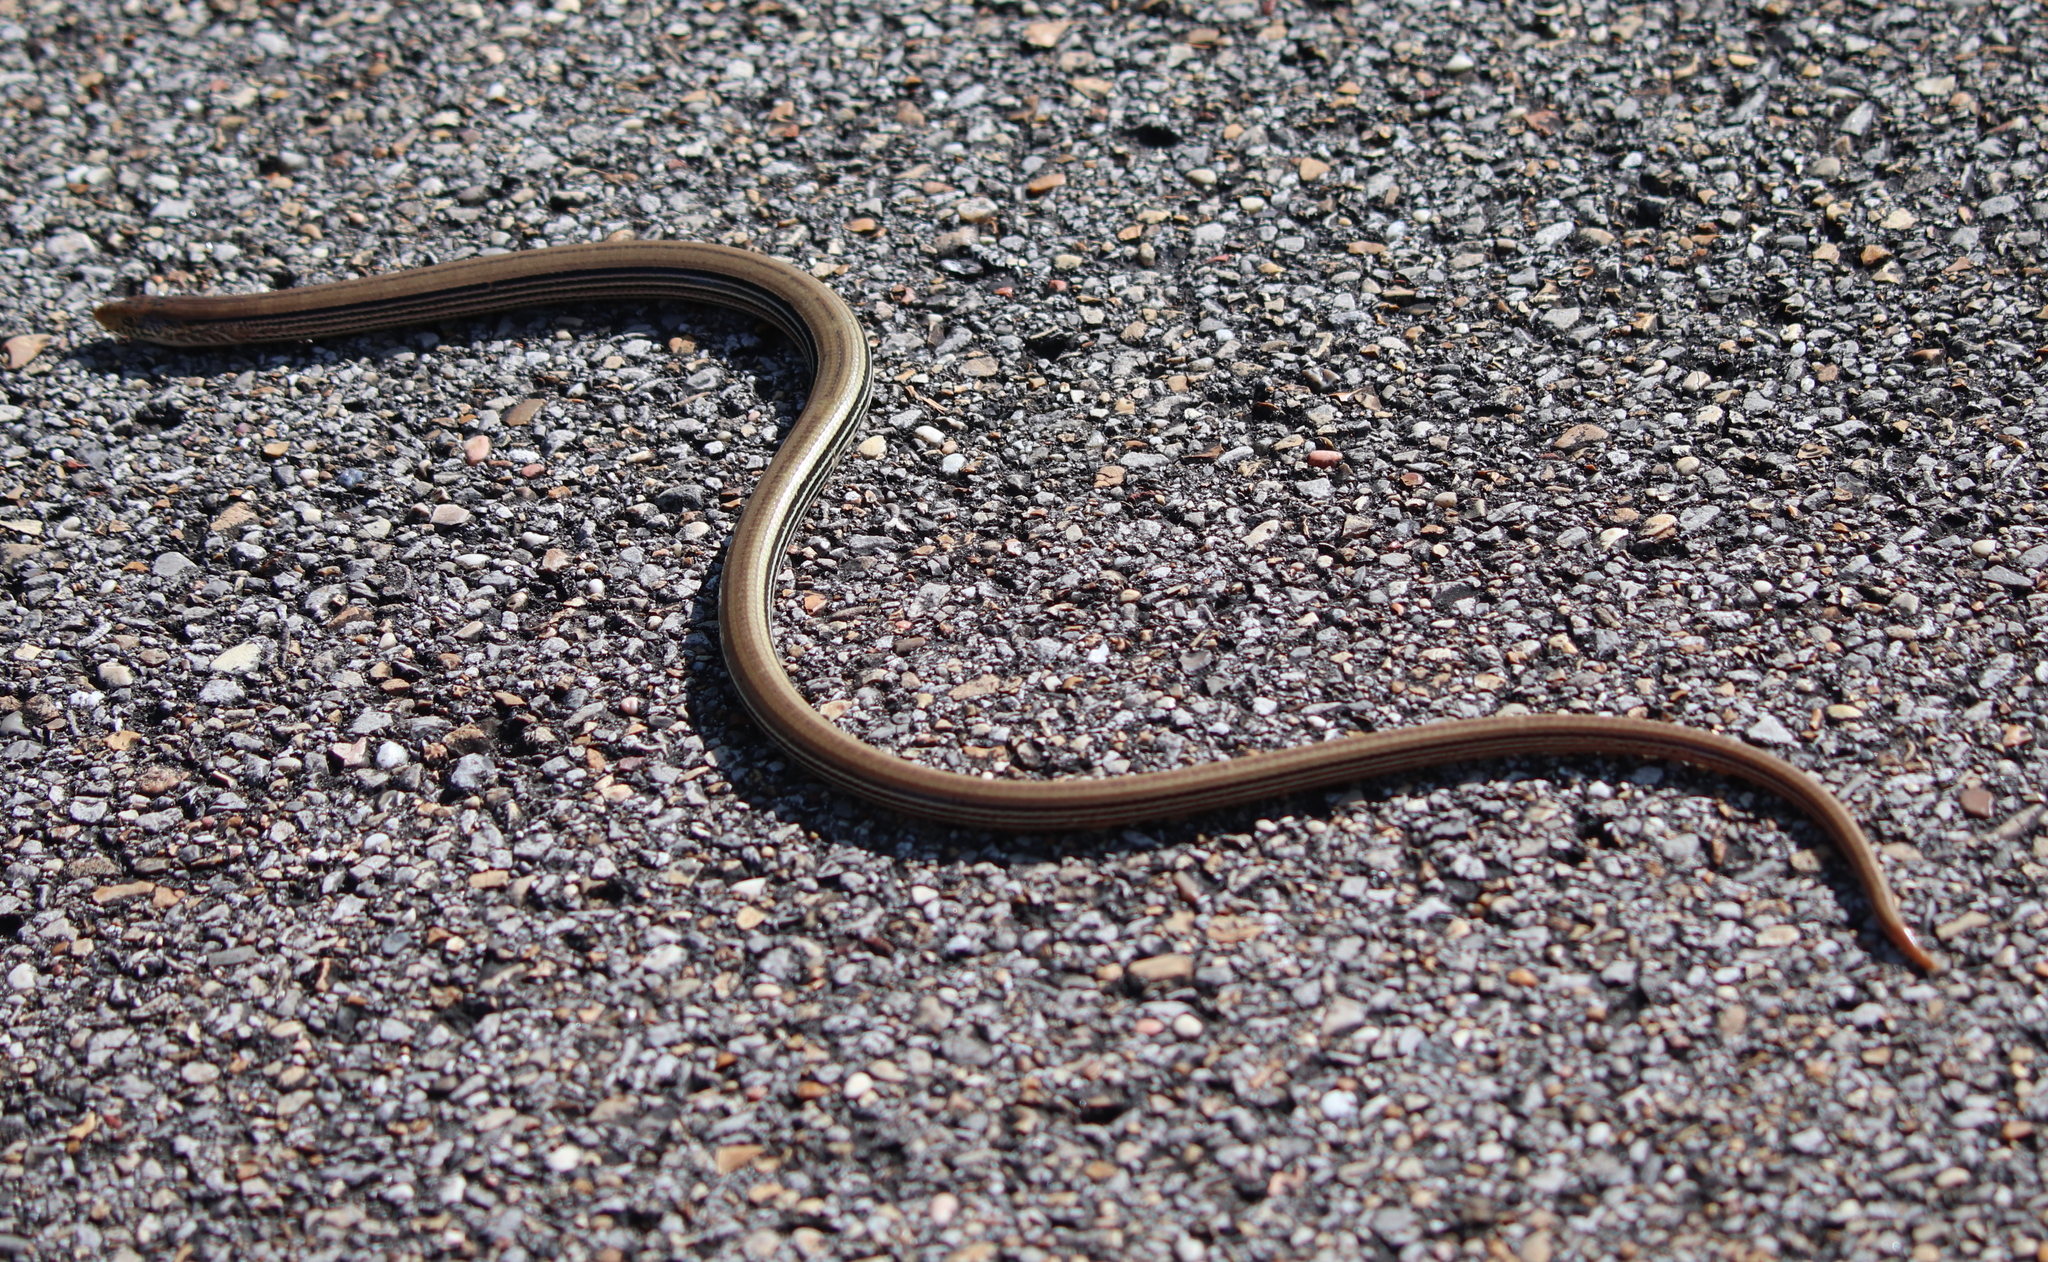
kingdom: Animalia
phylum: Chordata
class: Squamata
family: Anguidae
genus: Ophisaurus
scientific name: Ophisaurus attenuatus
